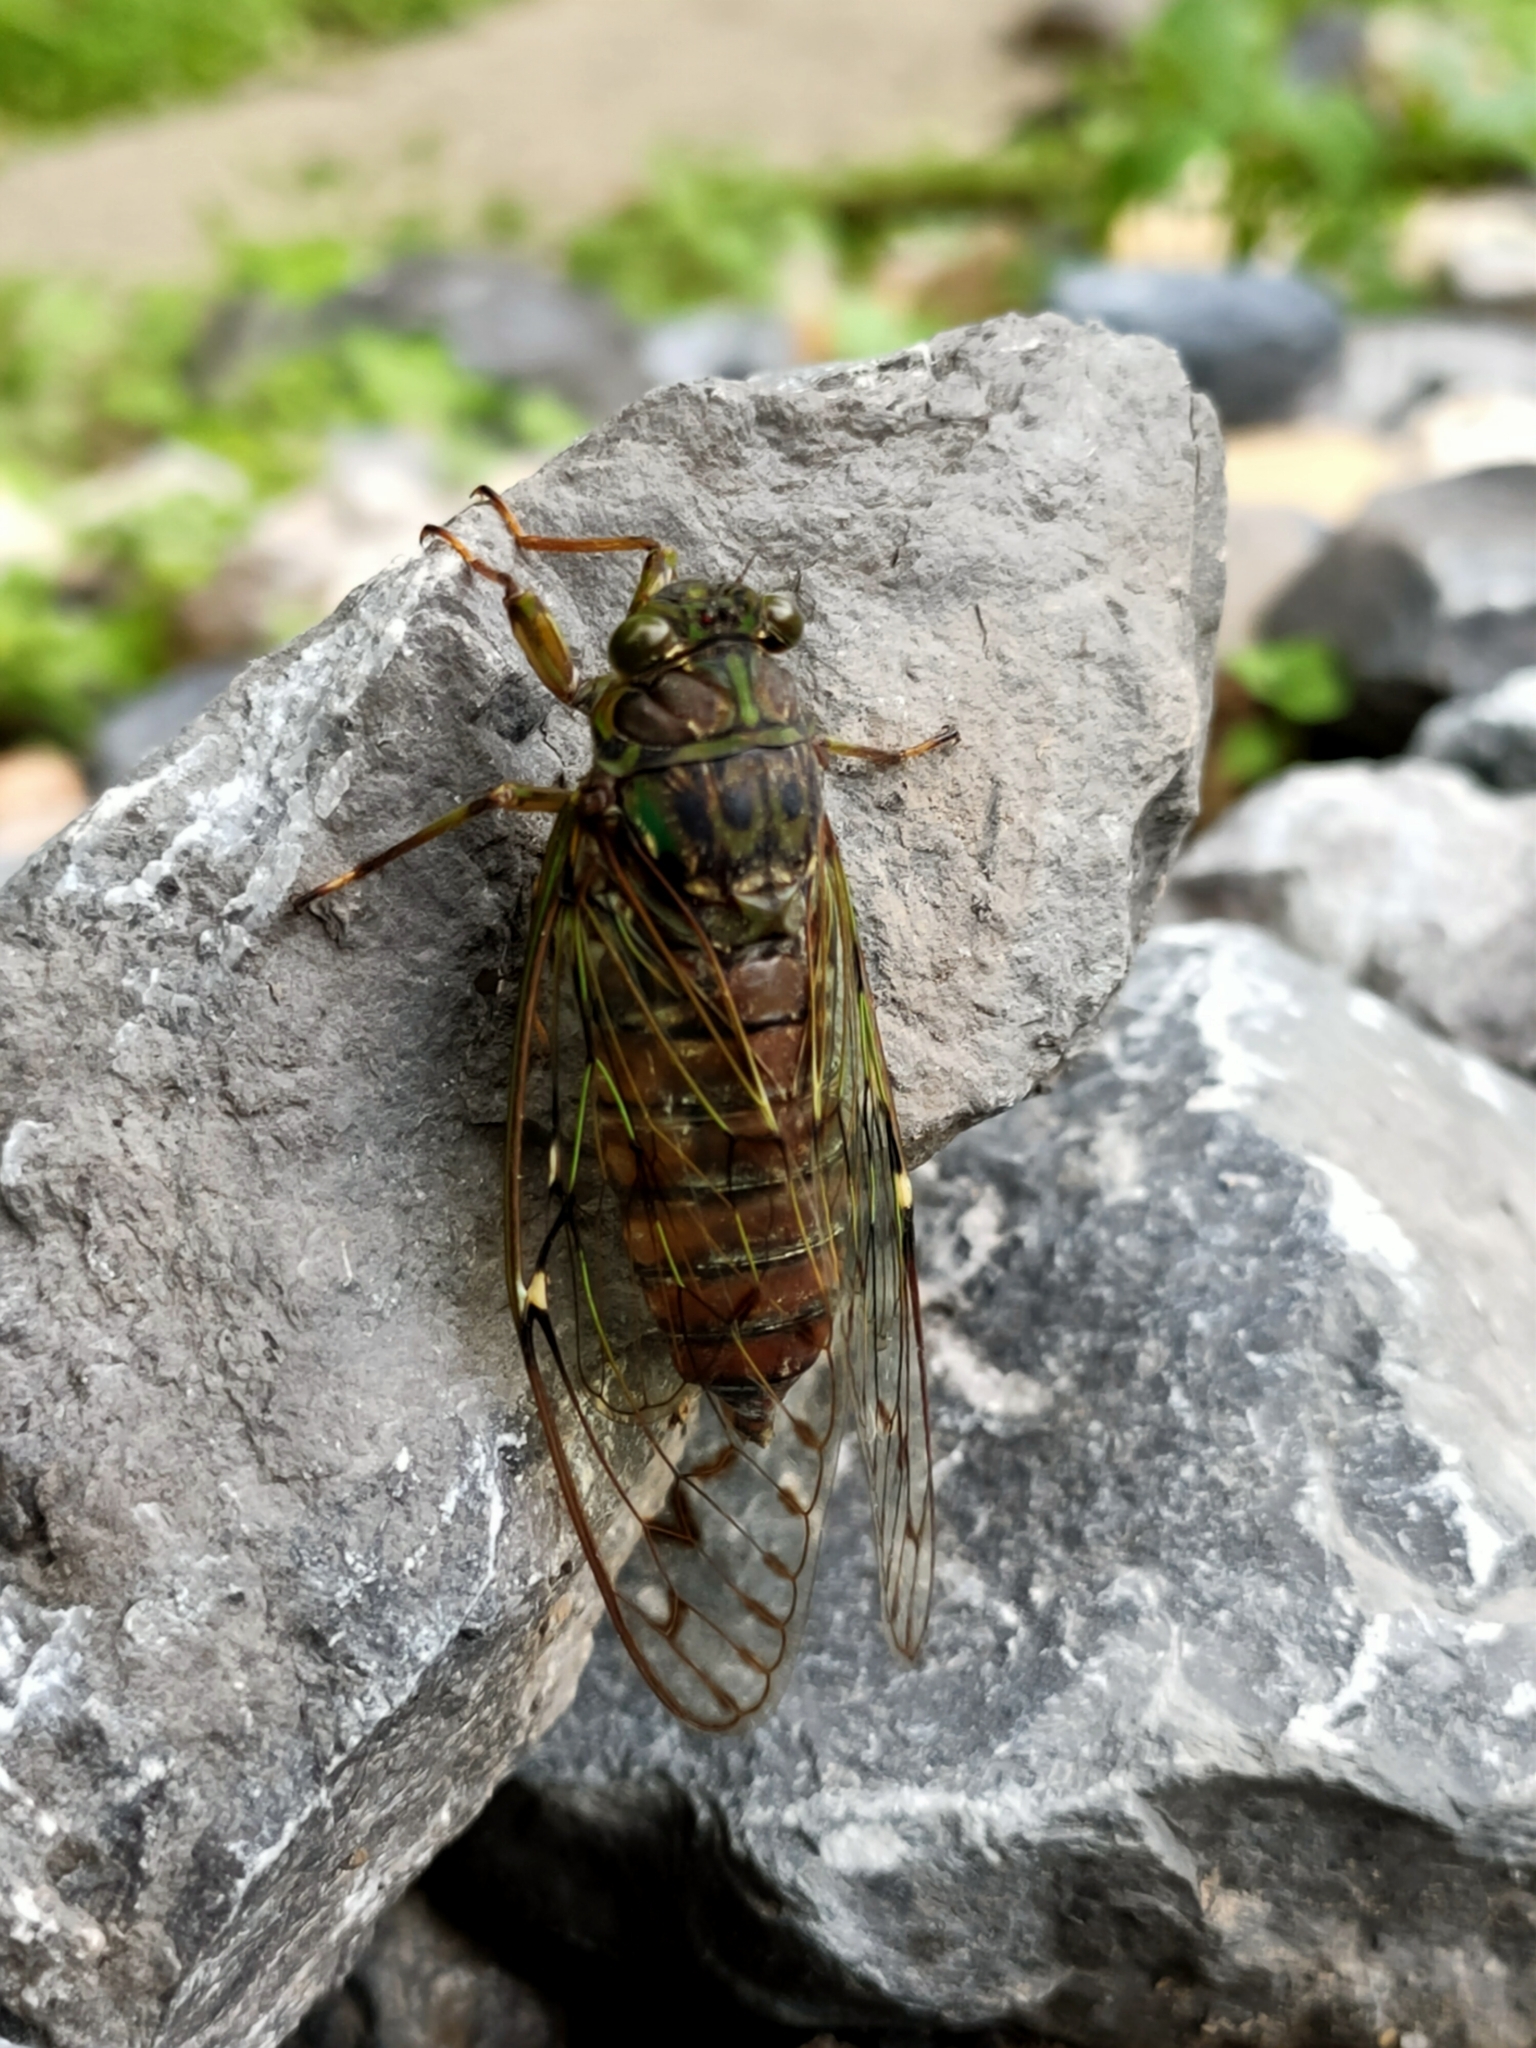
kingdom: Animalia
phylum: Arthropoda
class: Insecta
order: Hemiptera
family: Cicadidae
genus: Tanna
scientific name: Tanna sozanensis
